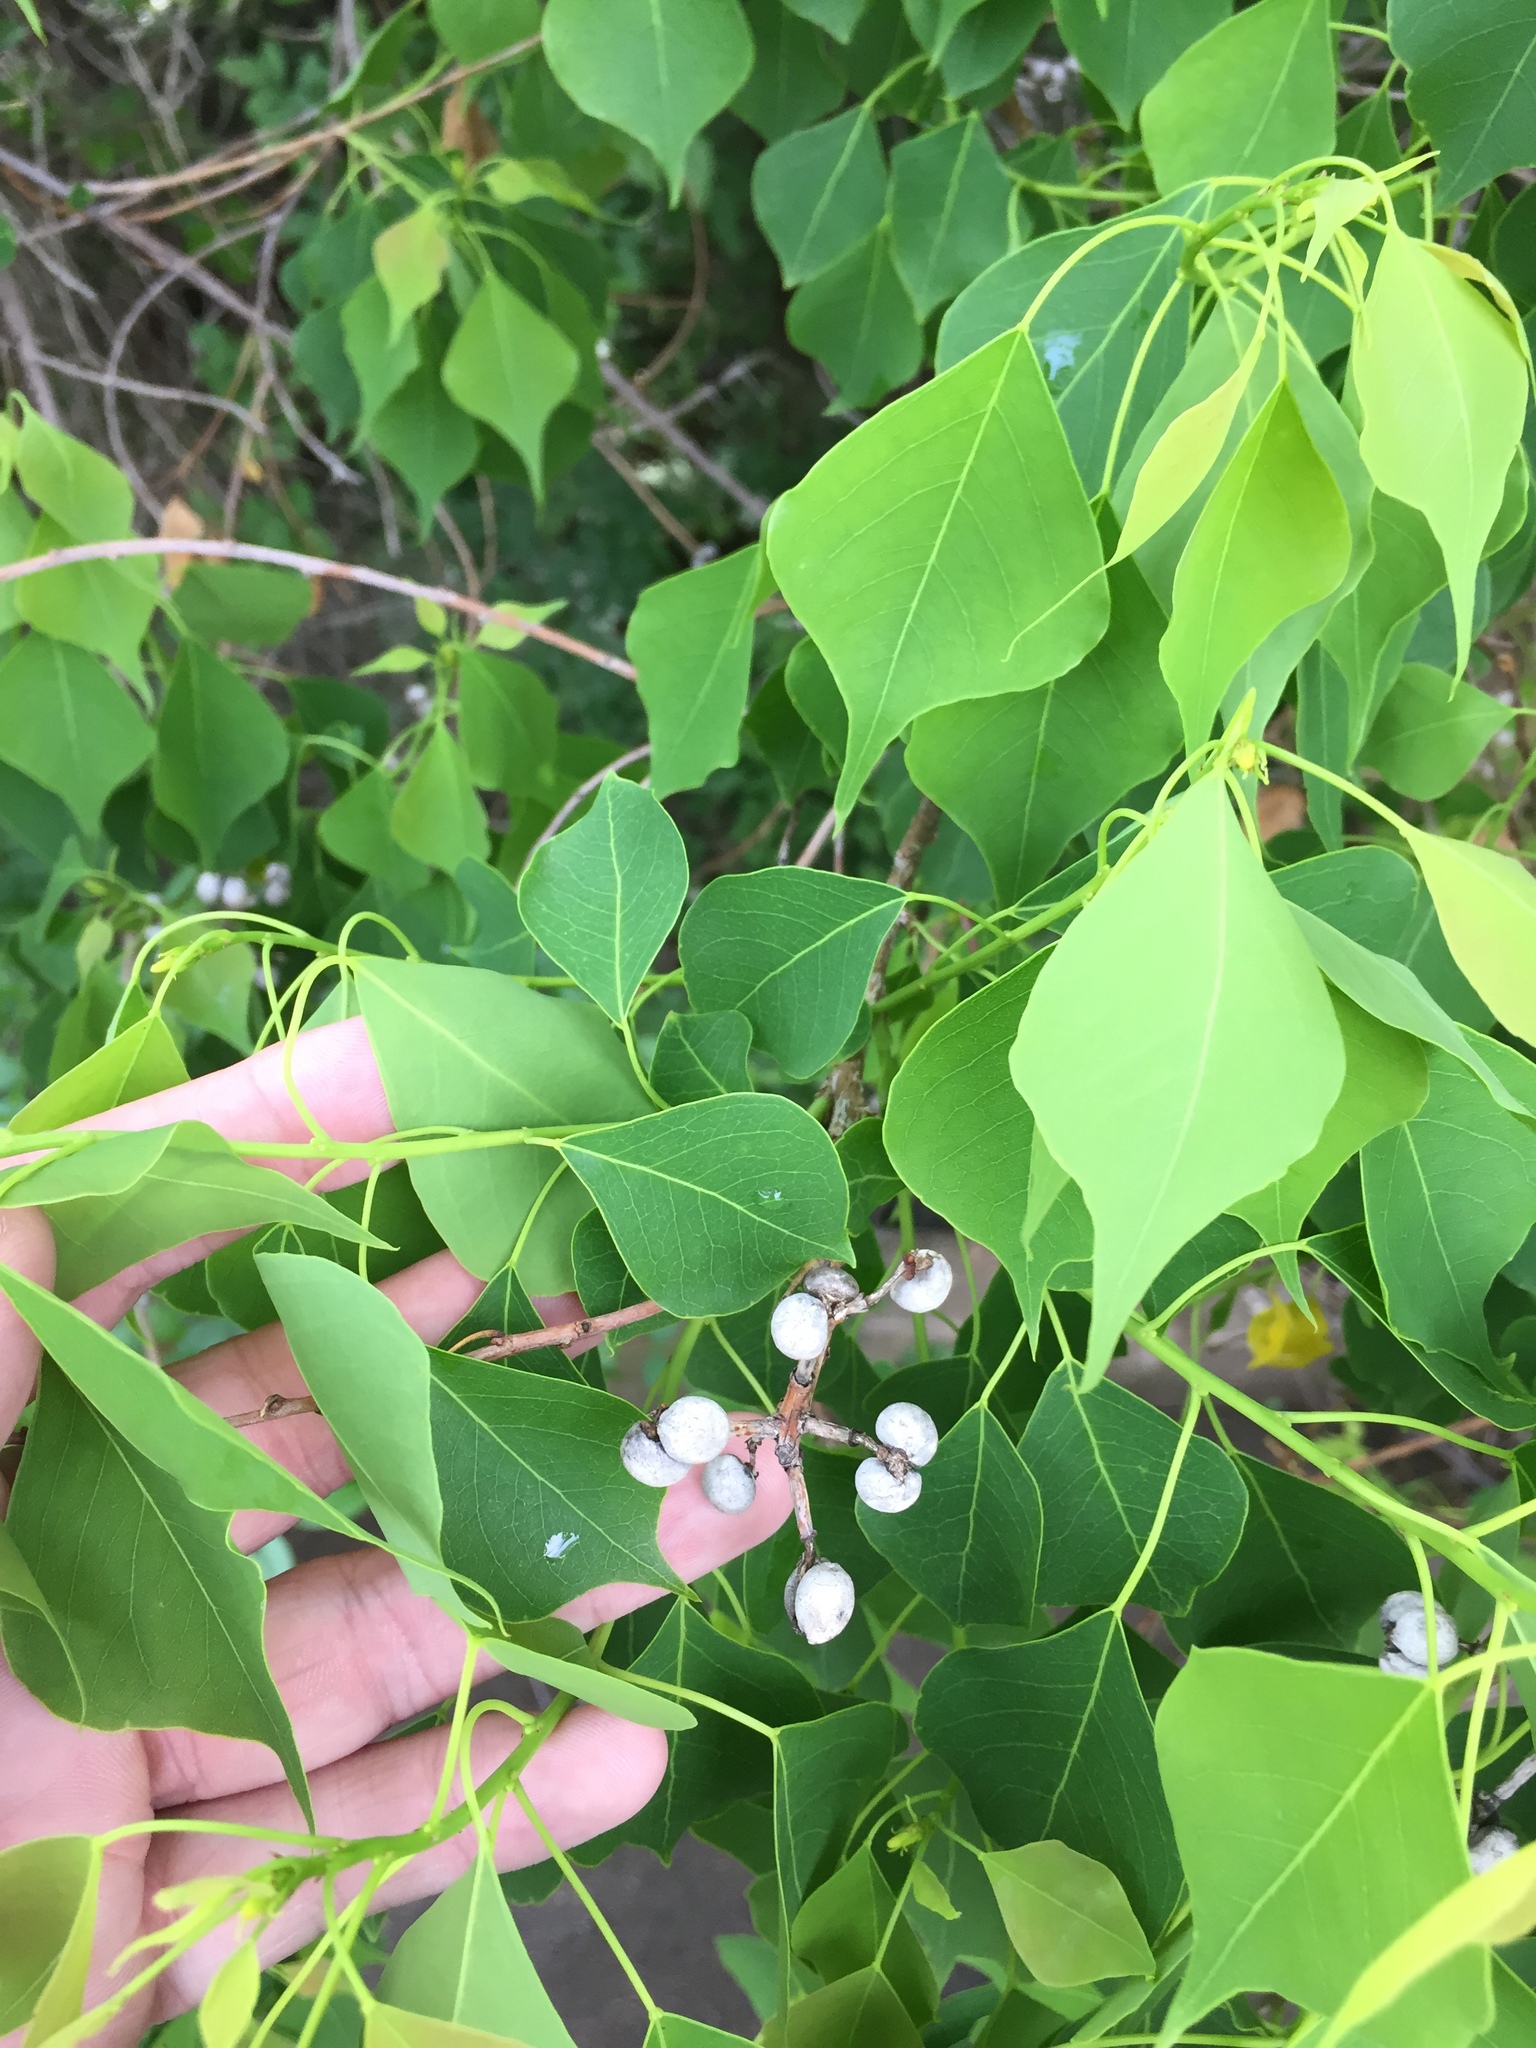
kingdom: Plantae
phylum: Tracheophyta
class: Magnoliopsida
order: Malpighiales
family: Euphorbiaceae
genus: Triadica
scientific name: Triadica sebifera
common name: Chinese tallow
